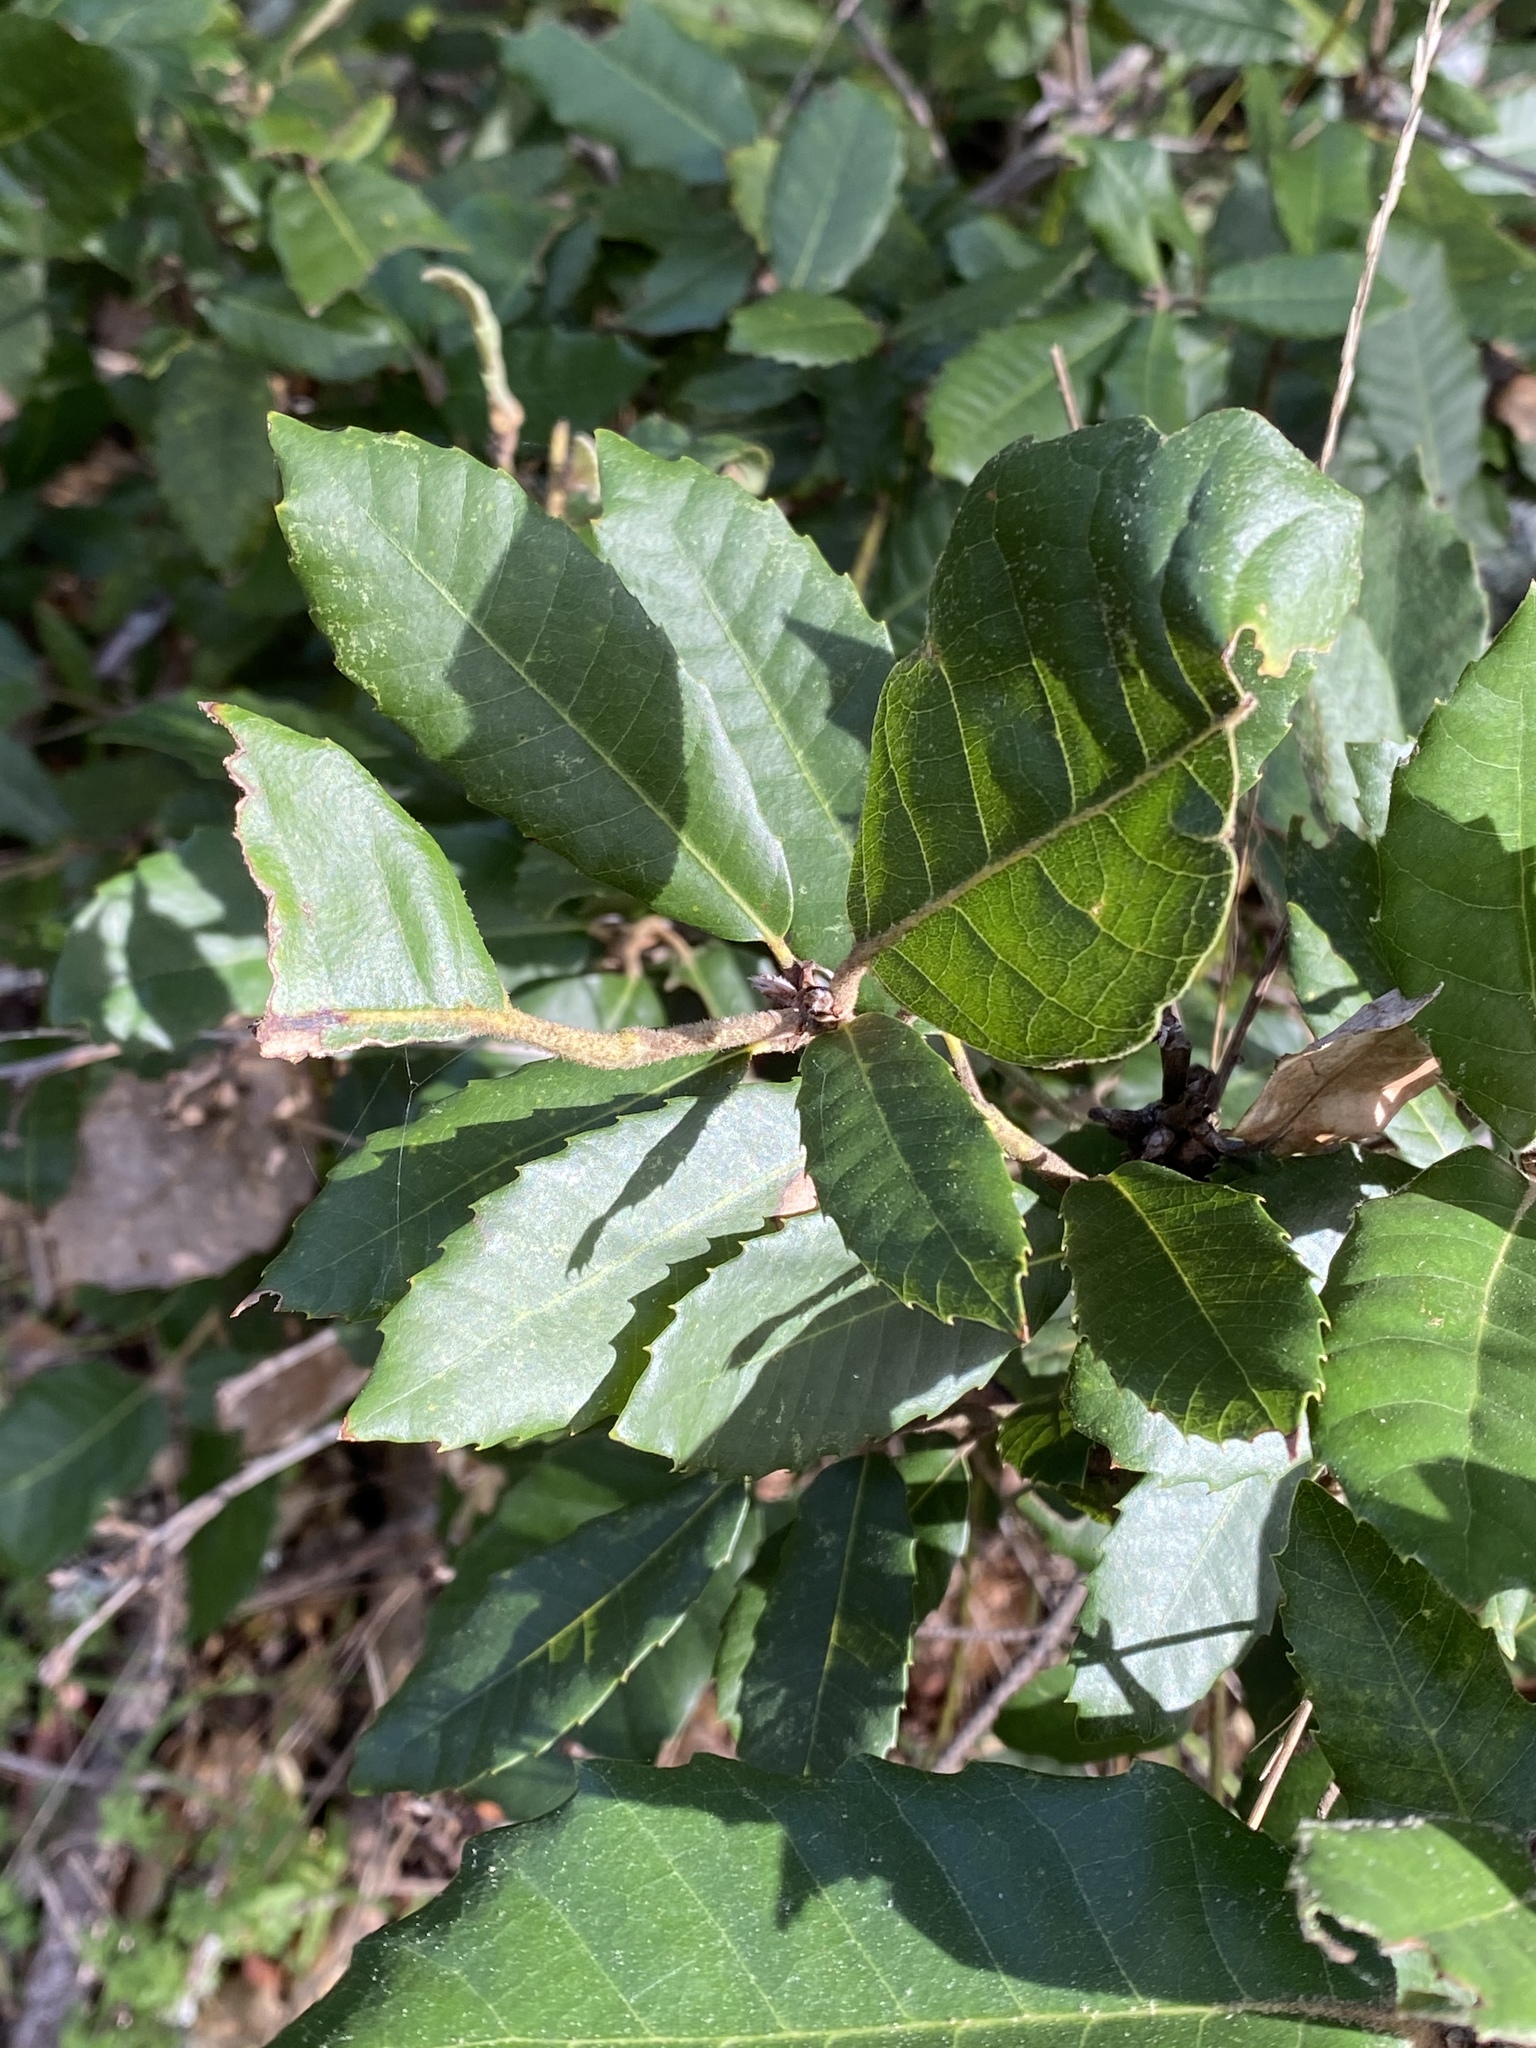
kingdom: Plantae
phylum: Tracheophyta
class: Magnoliopsida
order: Fagales
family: Fagaceae
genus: Notholithocarpus
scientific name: Notholithocarpus densiflorus
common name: Tan bark oak
